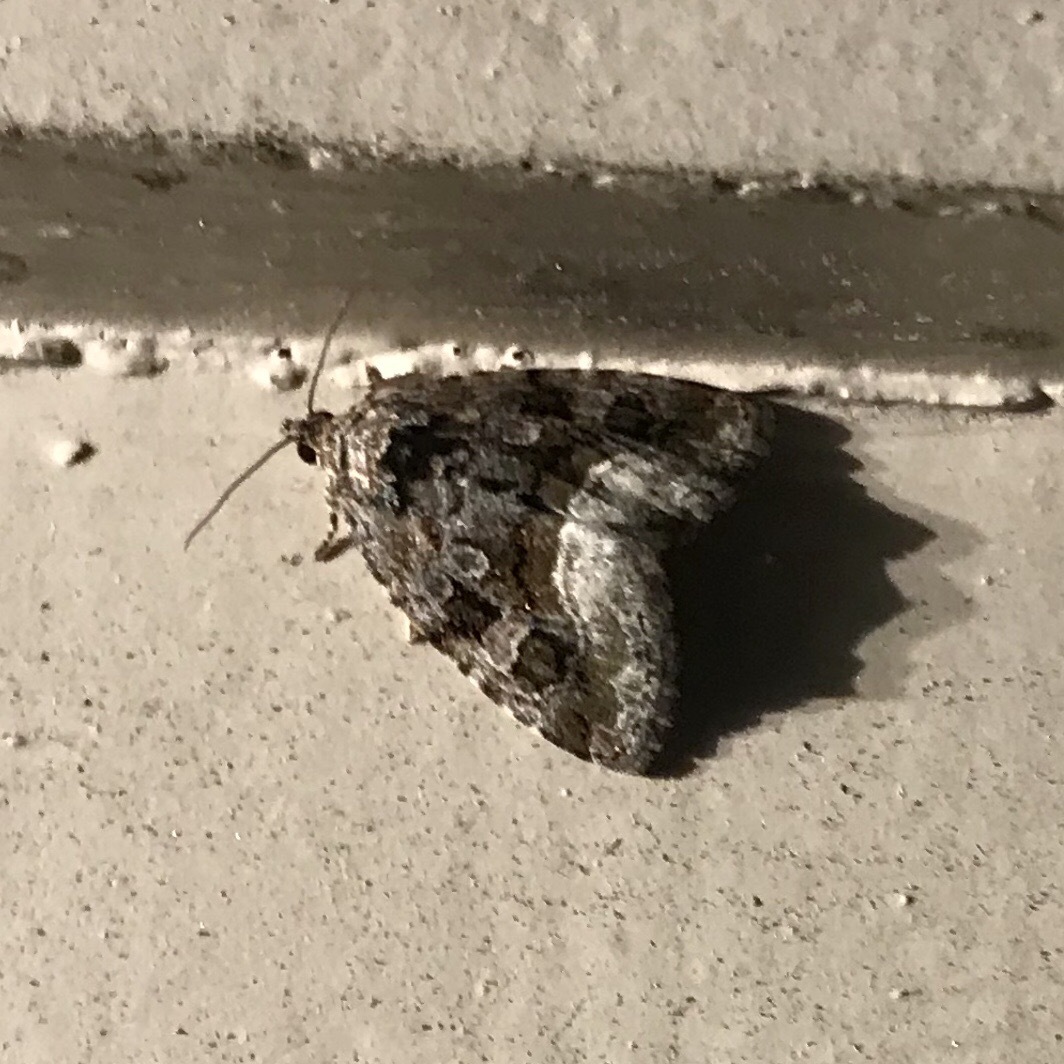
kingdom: Animalia
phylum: Arthropoda
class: Insecta
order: Lepidoptera
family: Noctuidae
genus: Protodeltote
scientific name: Protodeltote muscosula
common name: Large mossy glyph
